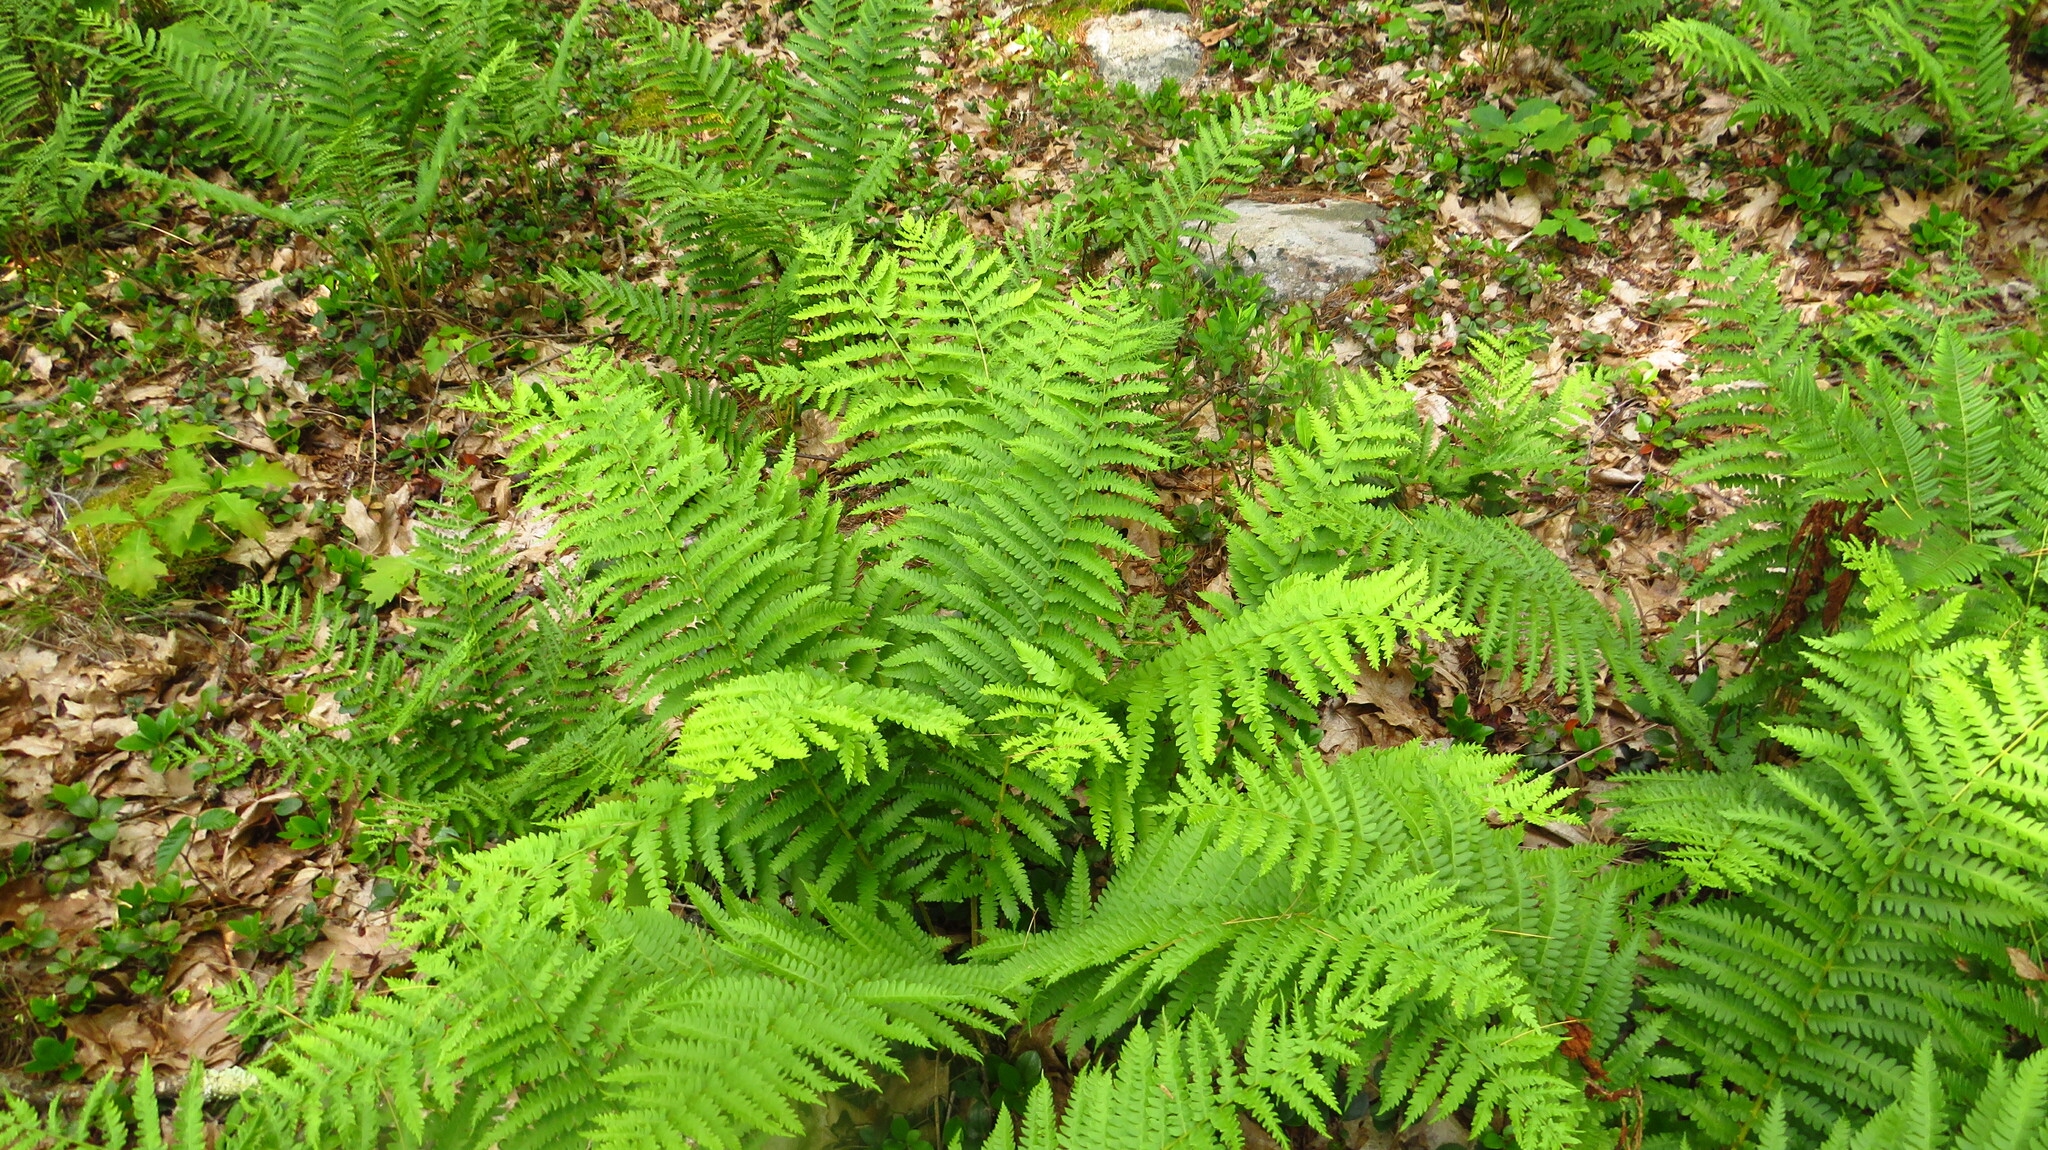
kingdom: Plantae
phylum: Tracheophyta
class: Polypodiopsida
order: Osmundales
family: Osmundaceae
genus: Osmundastrum
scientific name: Osmundastrum cinnamomeum
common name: Cinnamon fern
